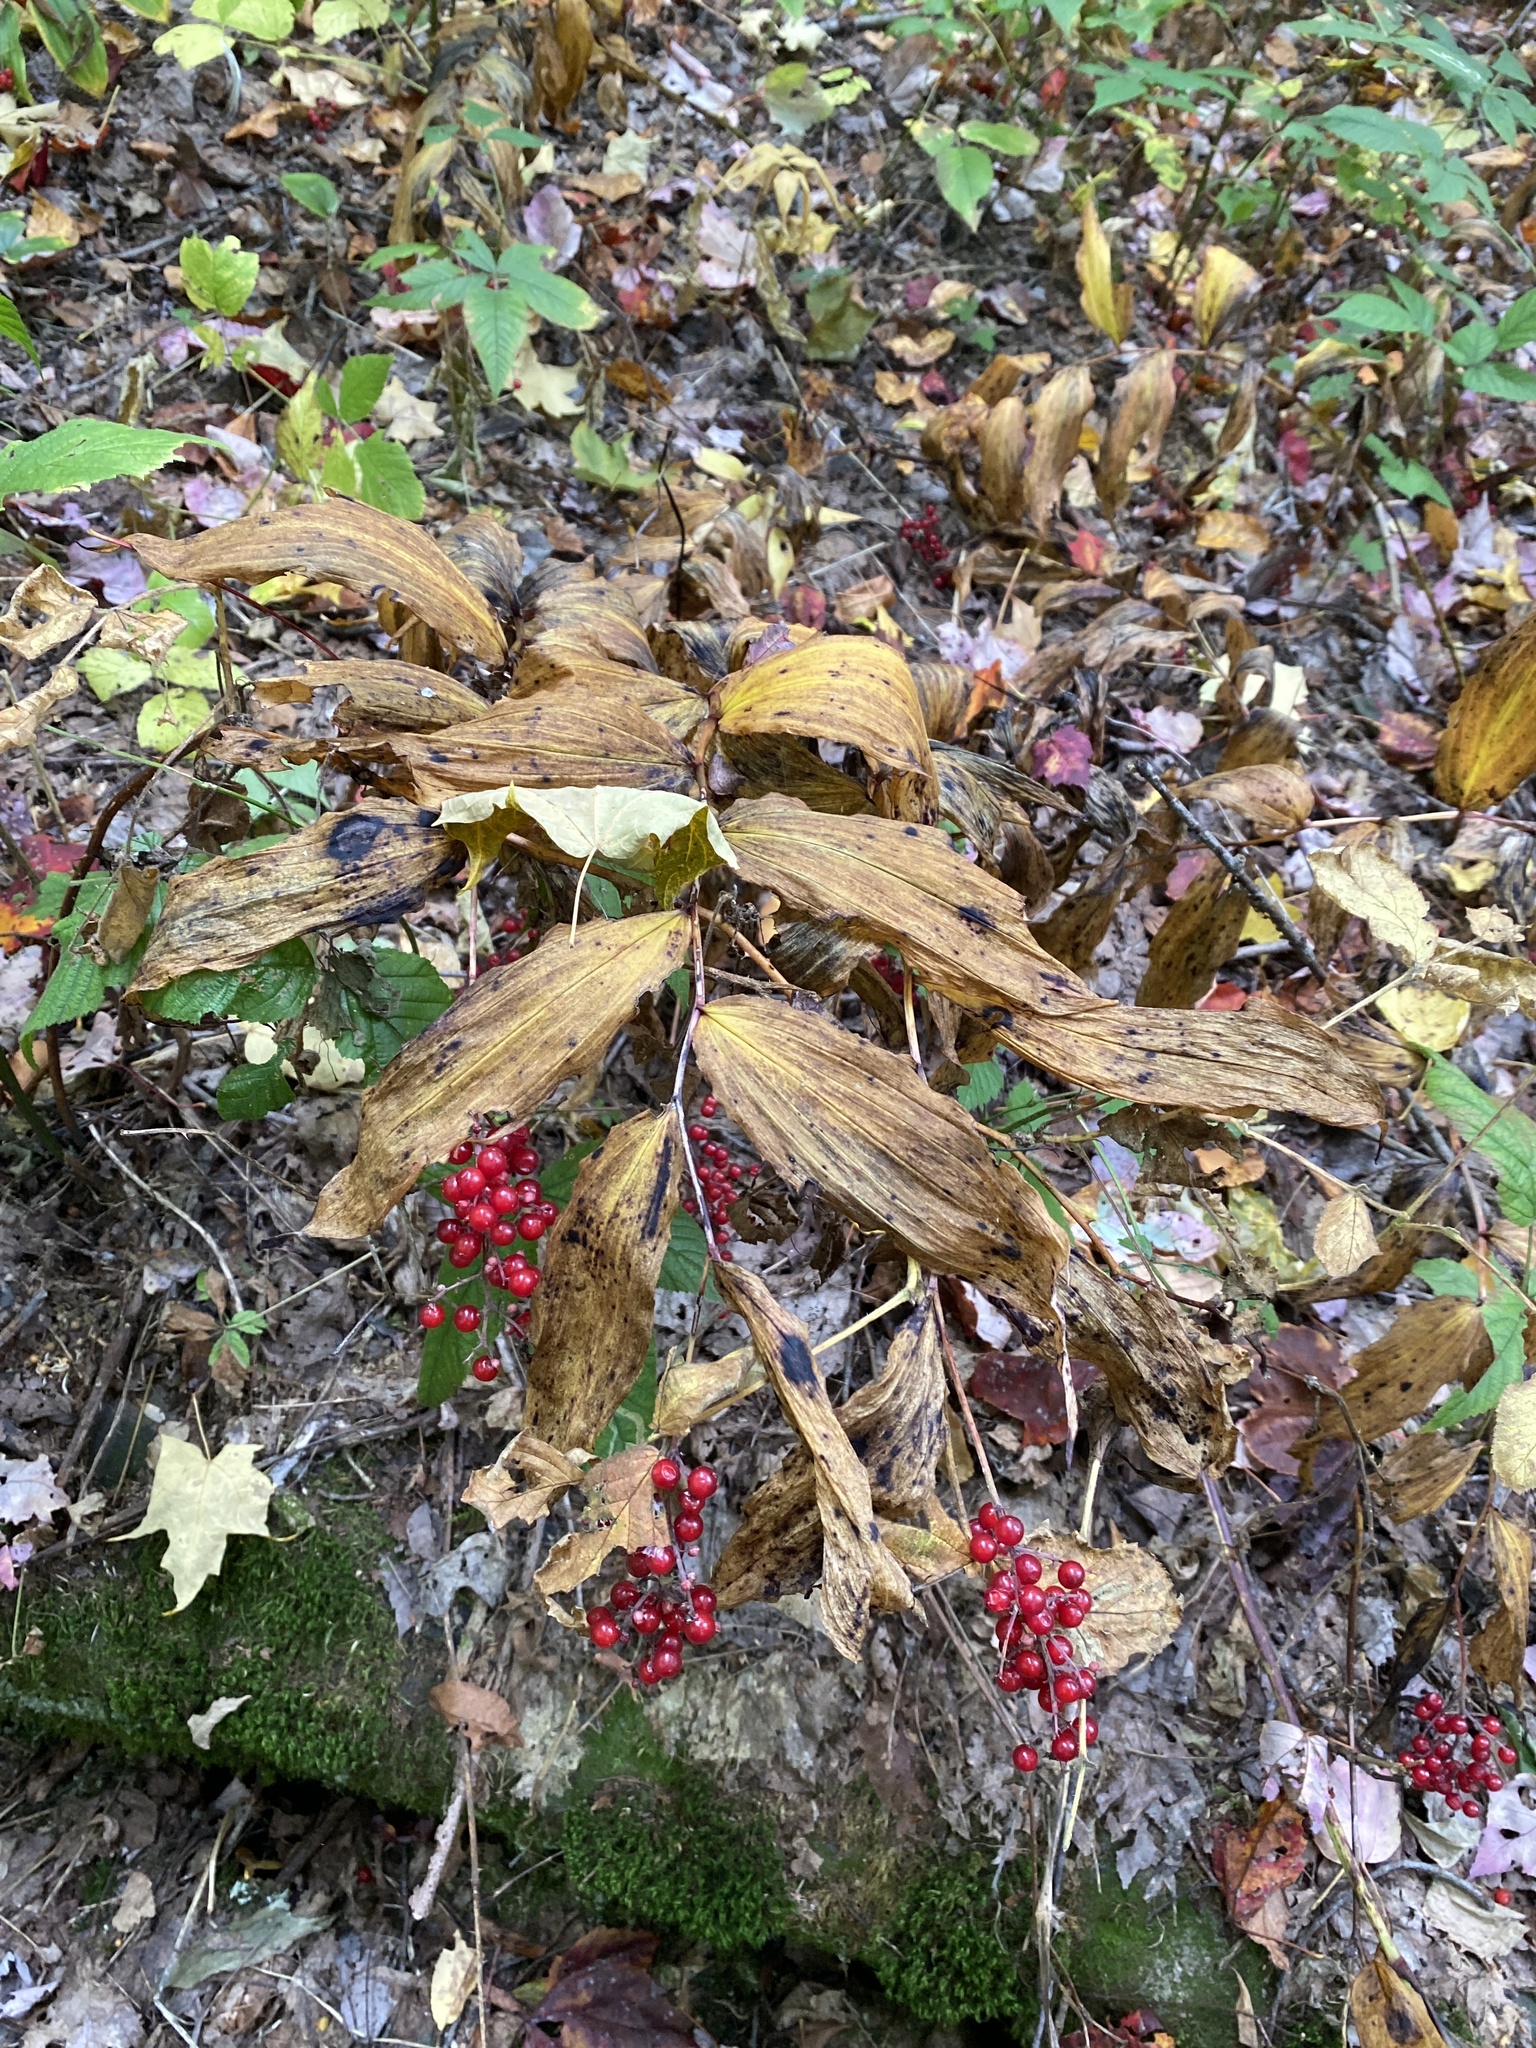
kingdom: Plantae
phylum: Tracheophyta
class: Liliopsida
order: Asparagales
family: Asparagaceae
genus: Maianthemum
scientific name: Maianthemum racemosum
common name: False spikenard
